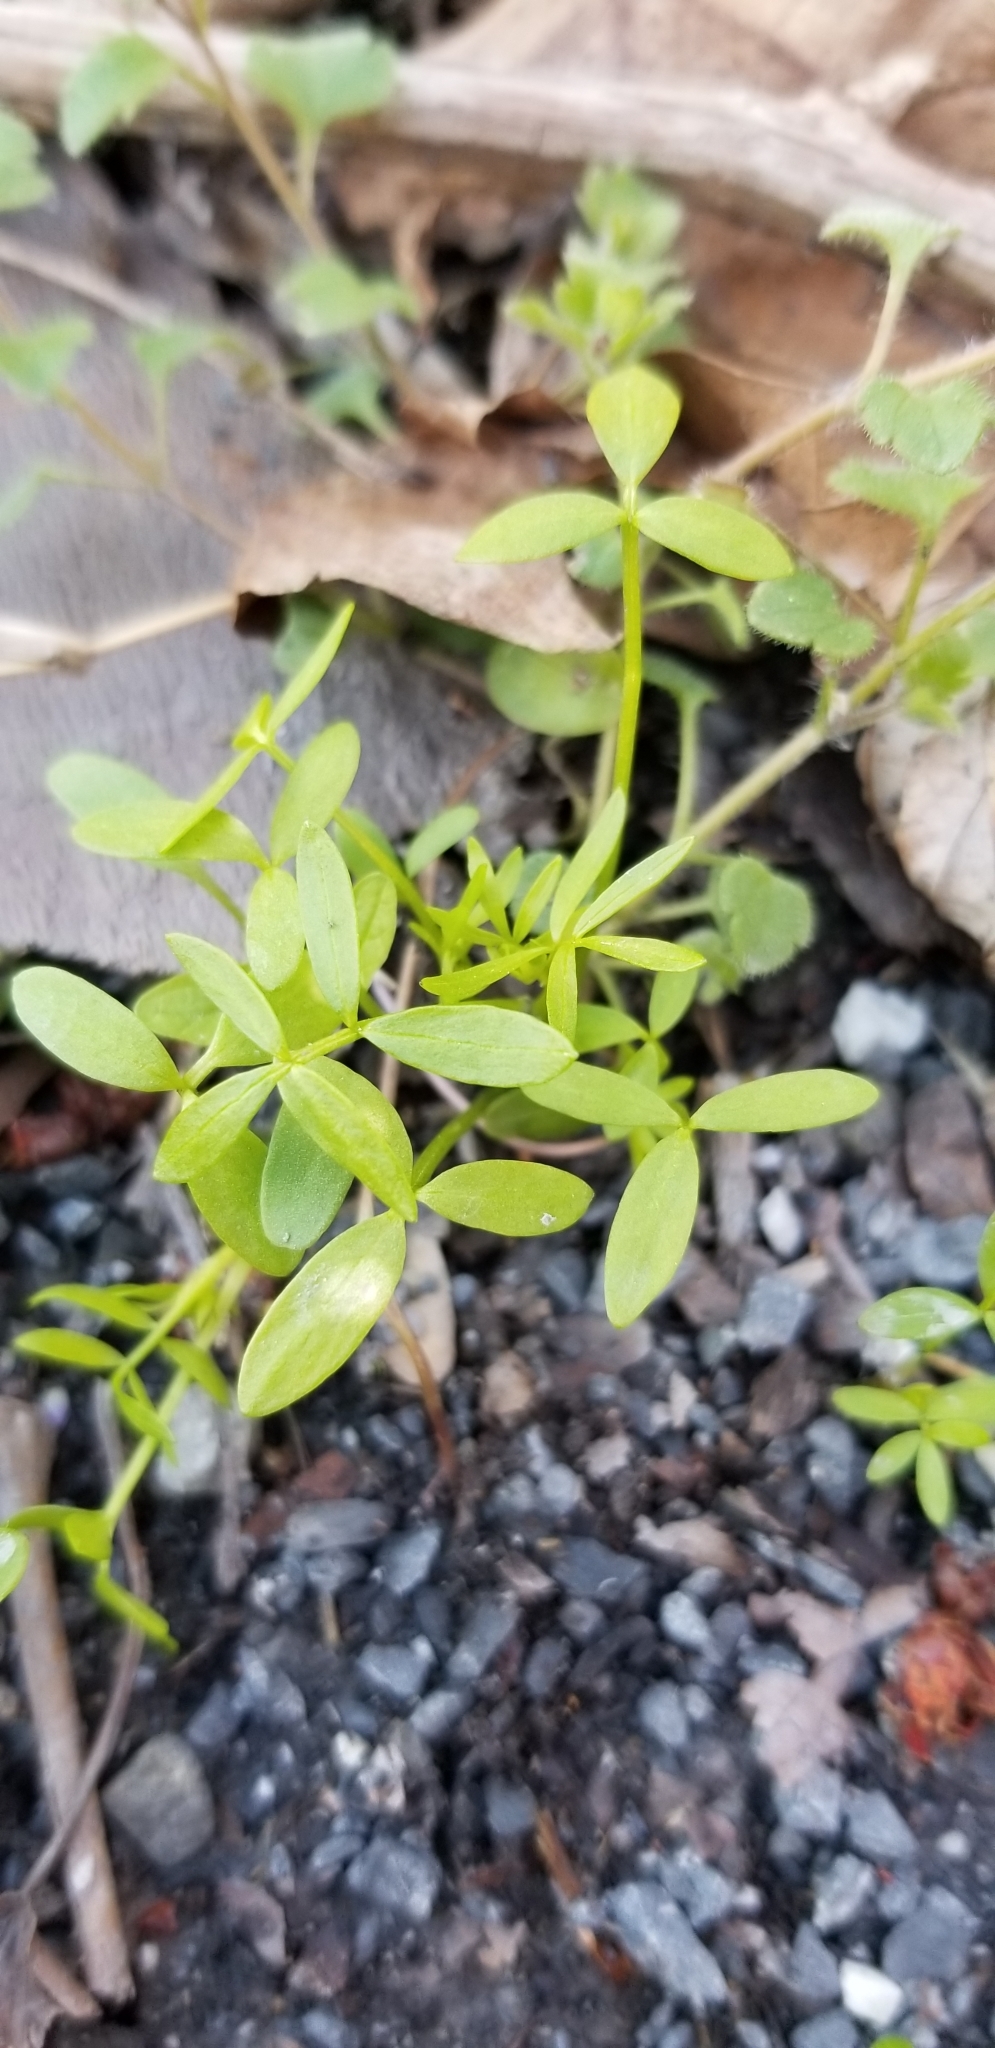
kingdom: Plantae
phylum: Tracheophyta
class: Magnoliopsida
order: Brassicales
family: Limnanthaceae
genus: Floerkea
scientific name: Floerkea proserpinacoides
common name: False mermaid
